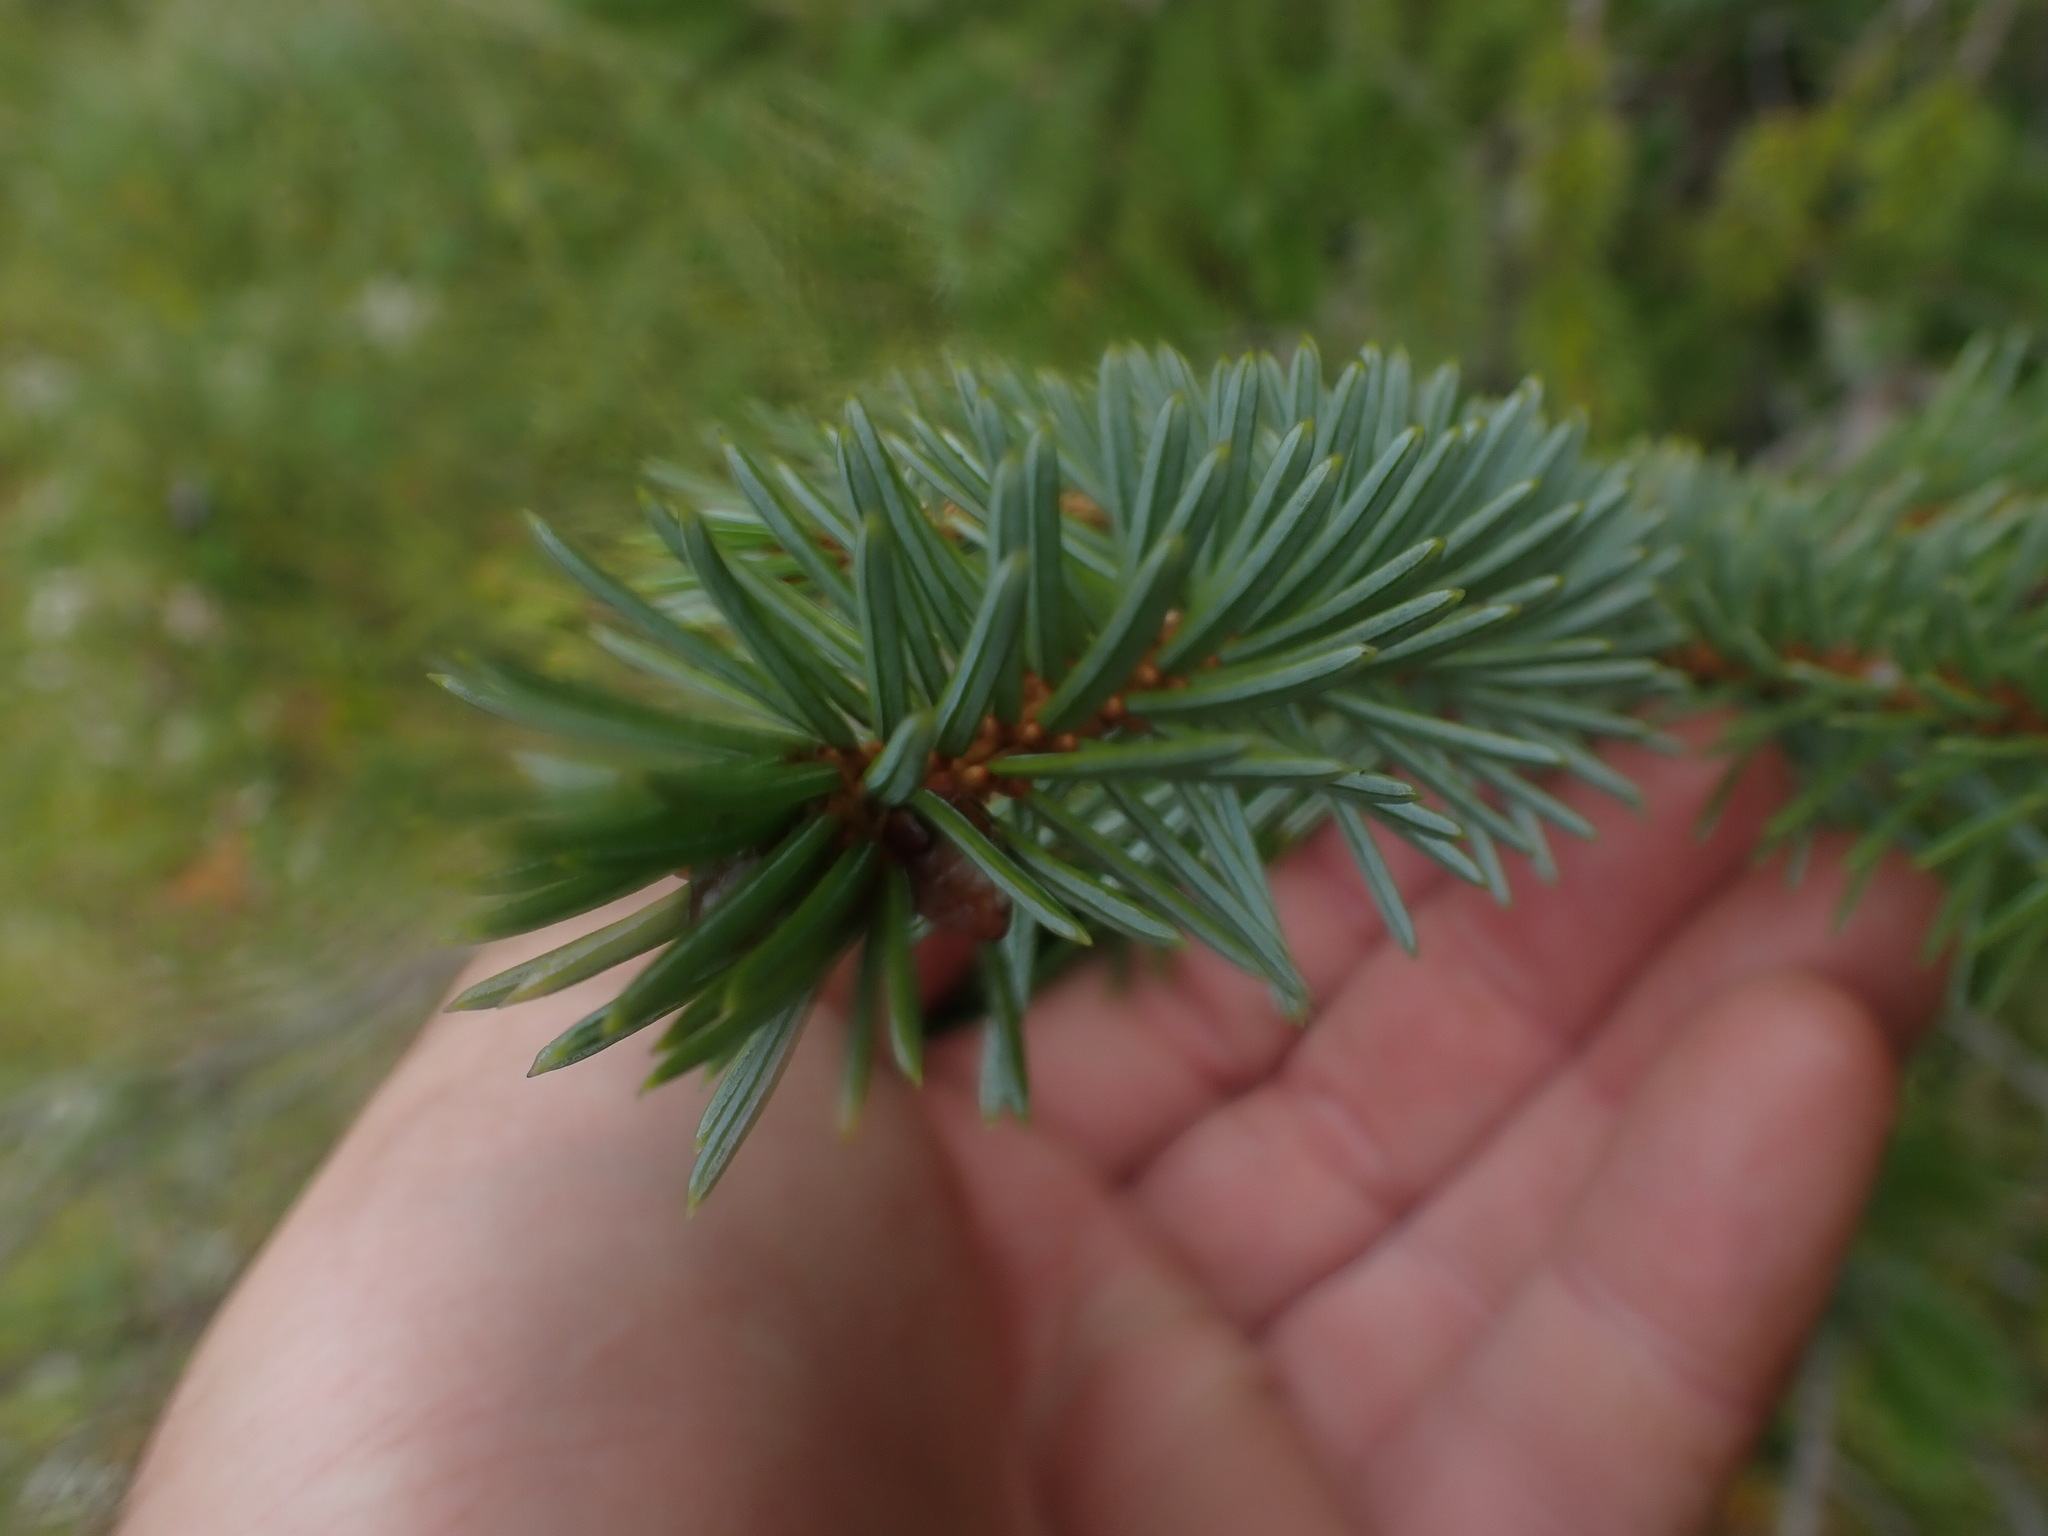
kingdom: Plantae
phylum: Tracheophyta
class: Pinopsida
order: Pinales
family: Pinaceae
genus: Picea
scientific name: Picea sitchensis
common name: Sitka spruce
